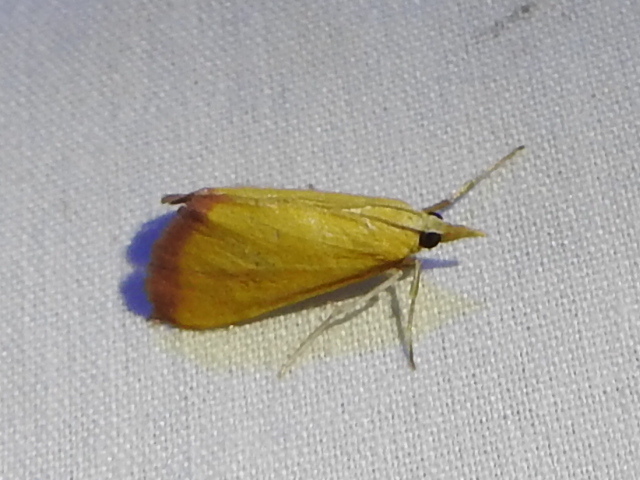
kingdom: Animalia
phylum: Arthropoda
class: Insecta
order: Lepidoptera
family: Crambidae
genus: Xanthostege
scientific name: Xanthostege roseiterminalis
